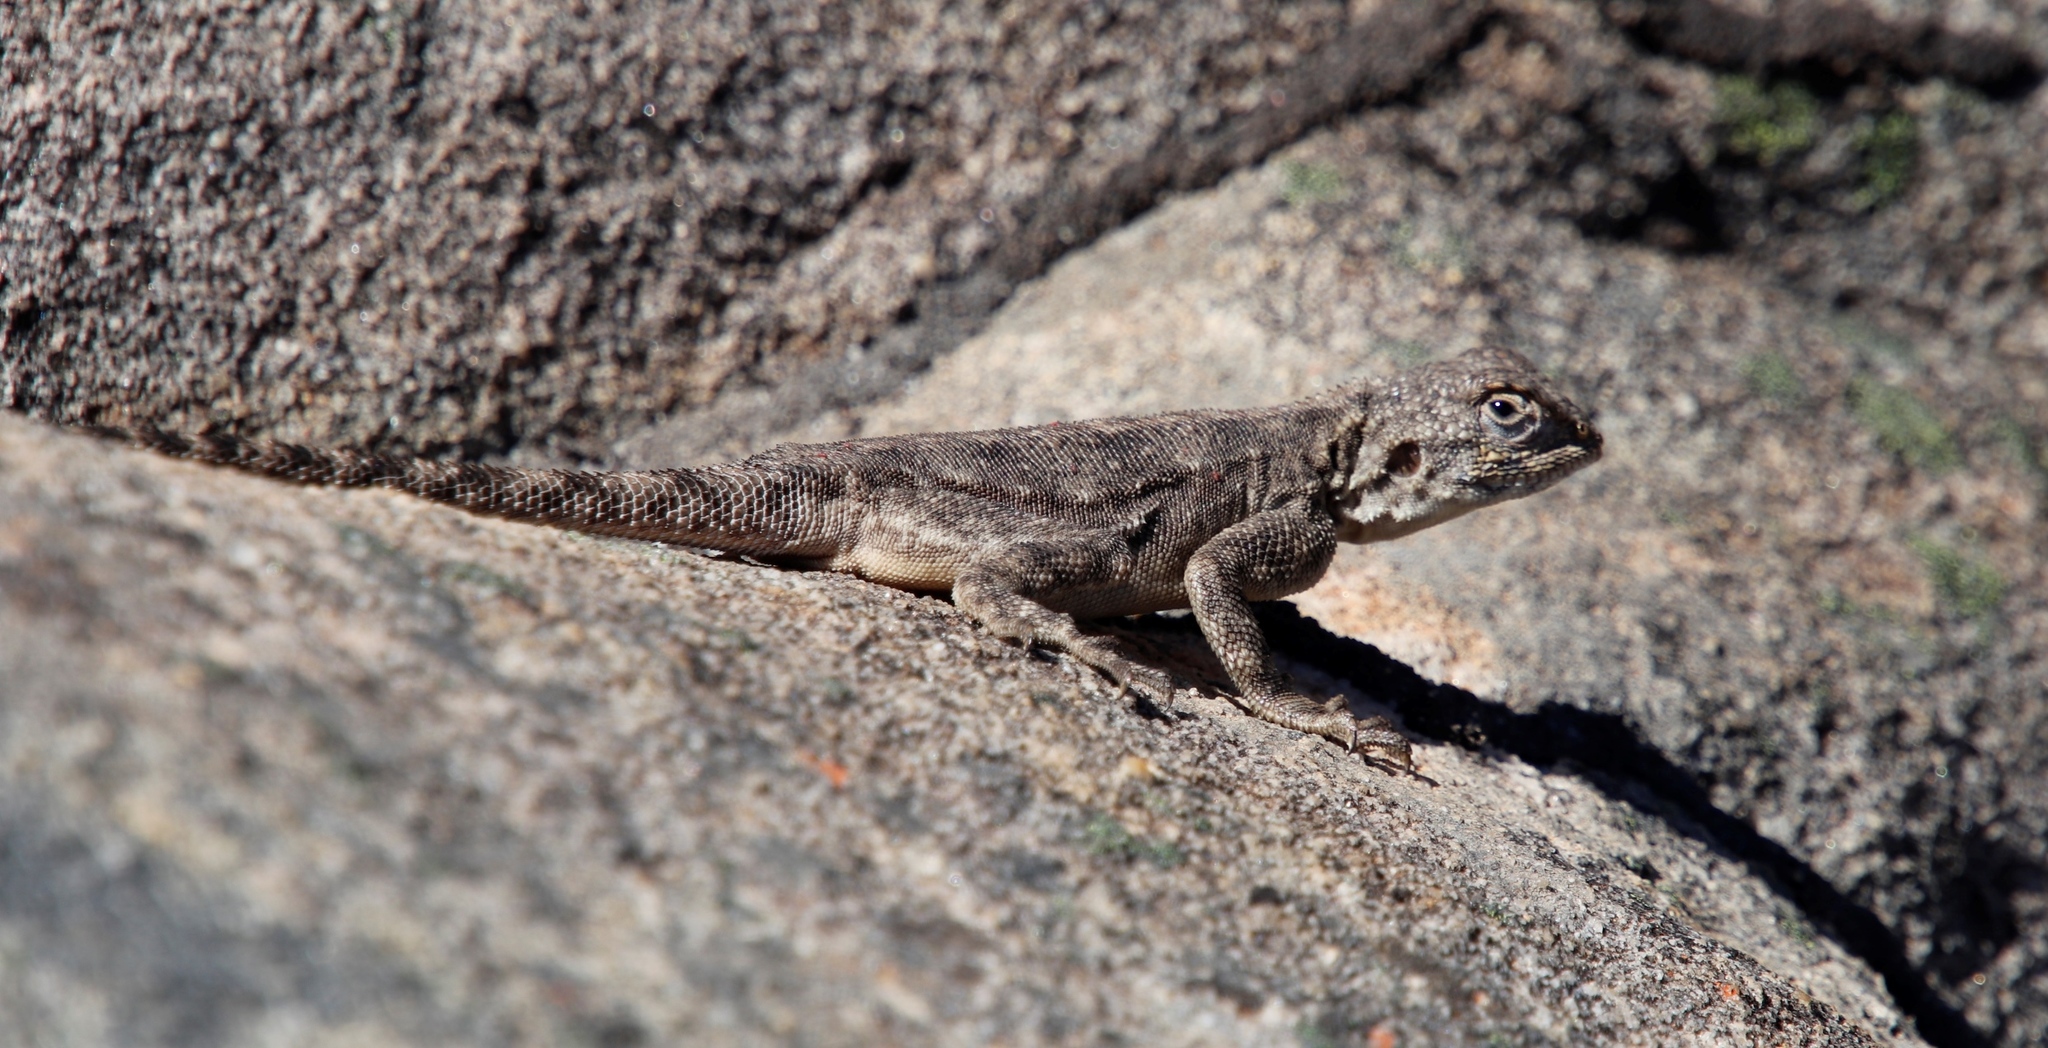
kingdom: Animalia
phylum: Chordata
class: Squamata
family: Agamidae
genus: Agama
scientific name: Agama atra
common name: Southern african rock agama
